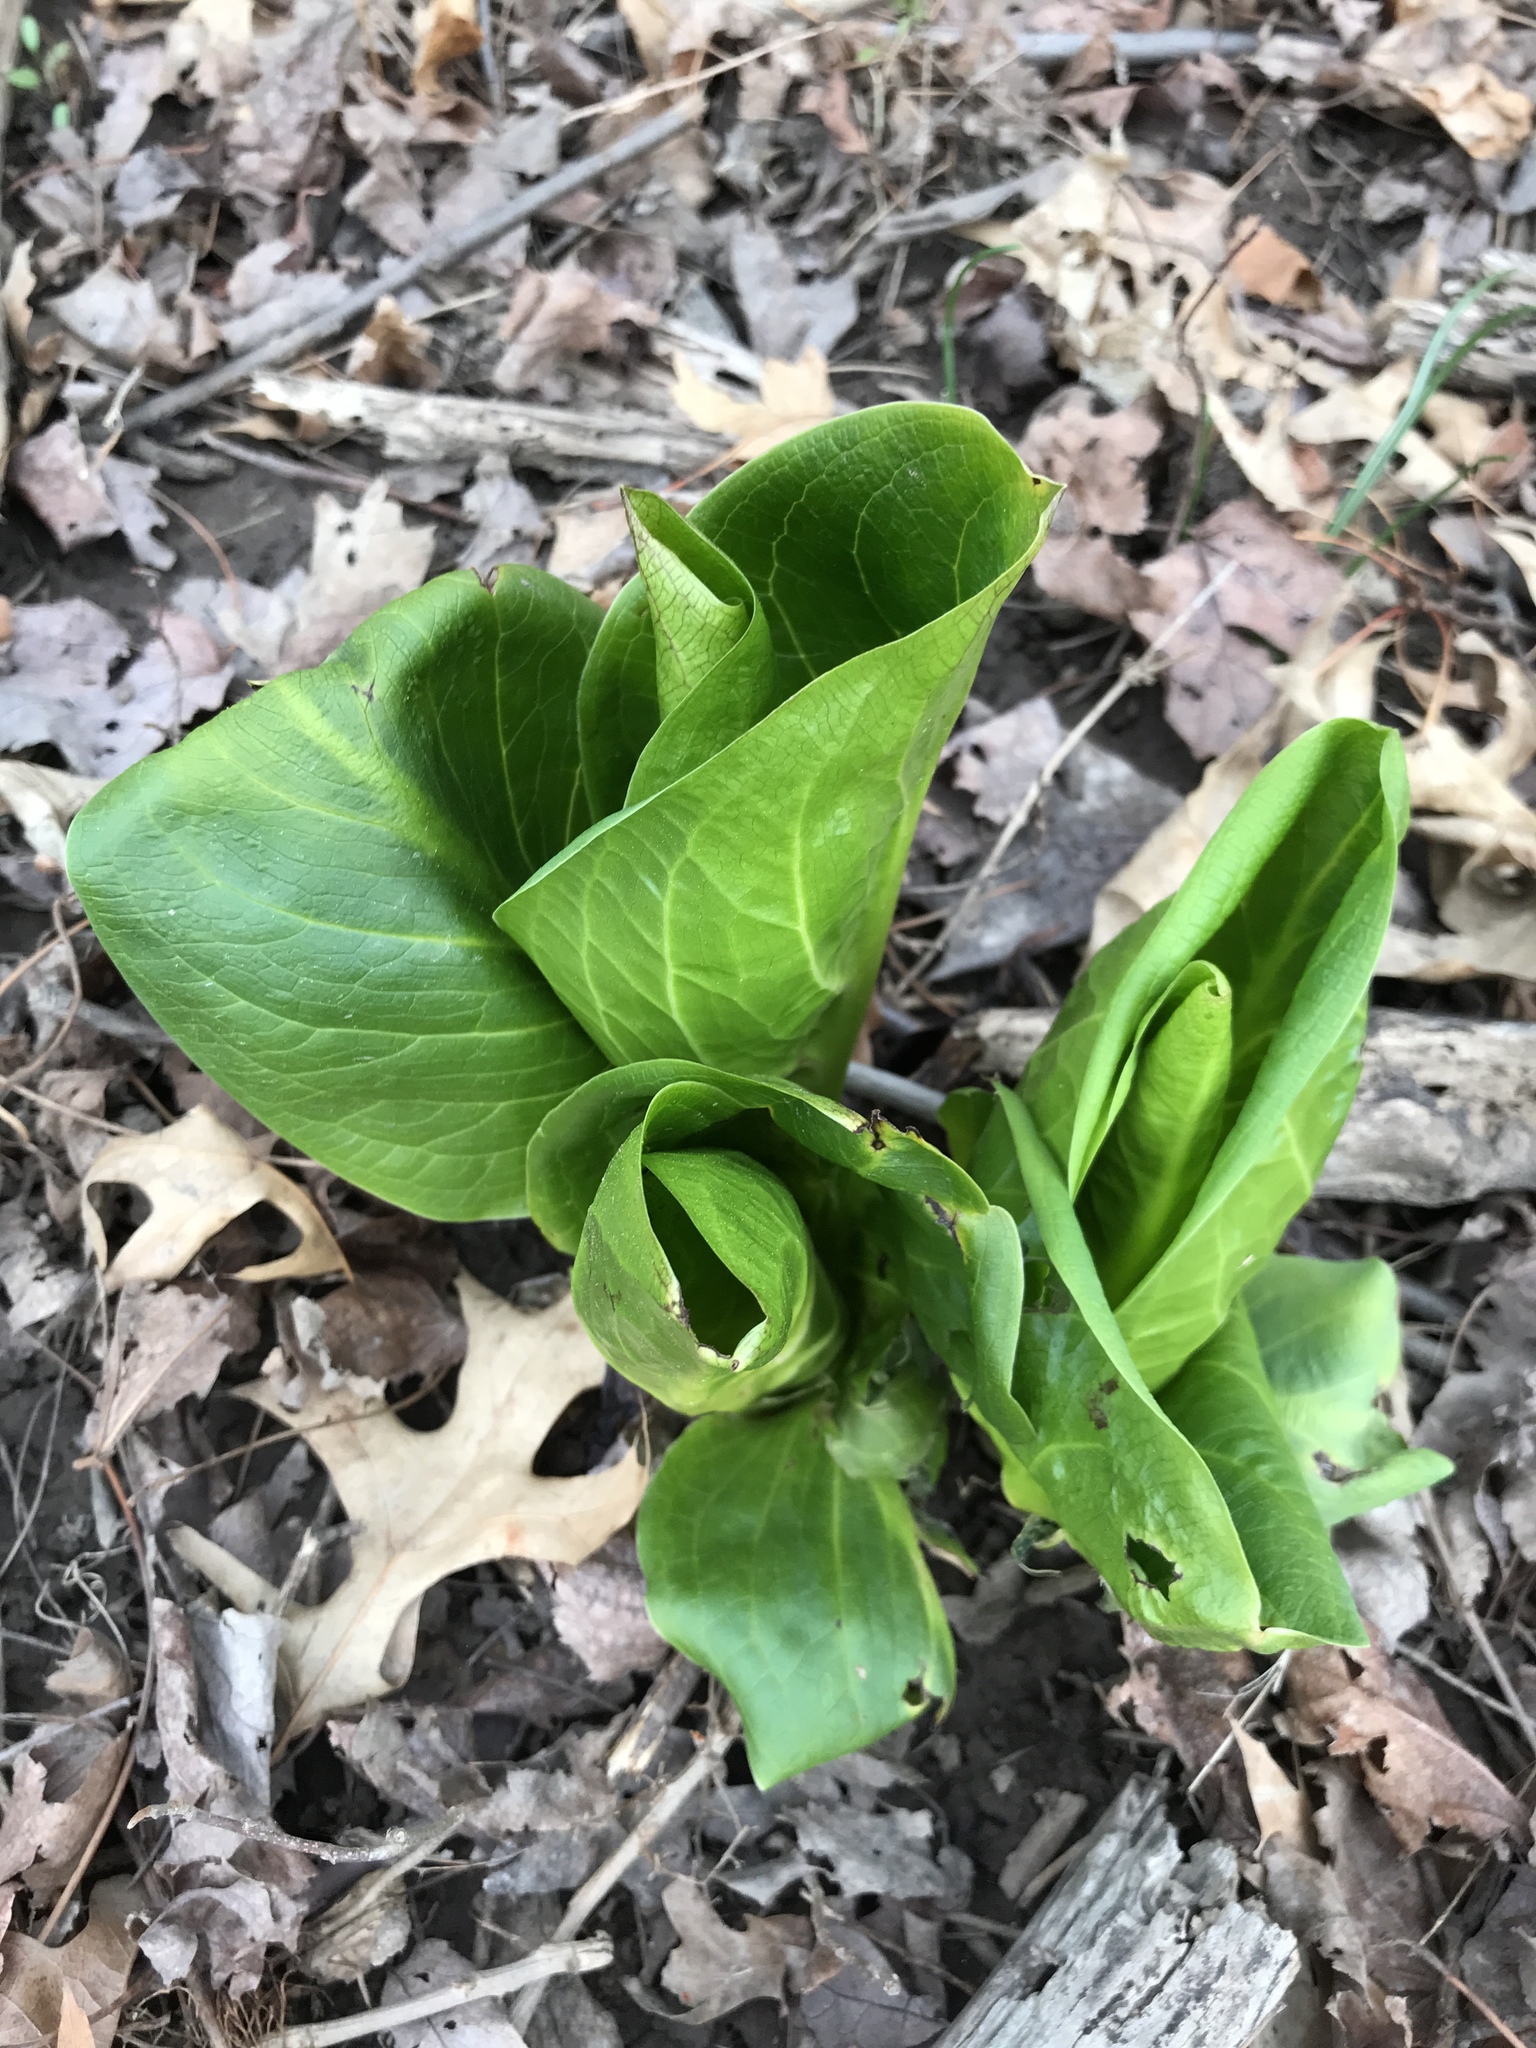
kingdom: Plantae
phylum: Tracheophyta
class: Liliopsida
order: Alismatales
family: Araceae
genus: Symplocarpus
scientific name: Symplocarpus foetidus
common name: Eastern skunk cabbage
